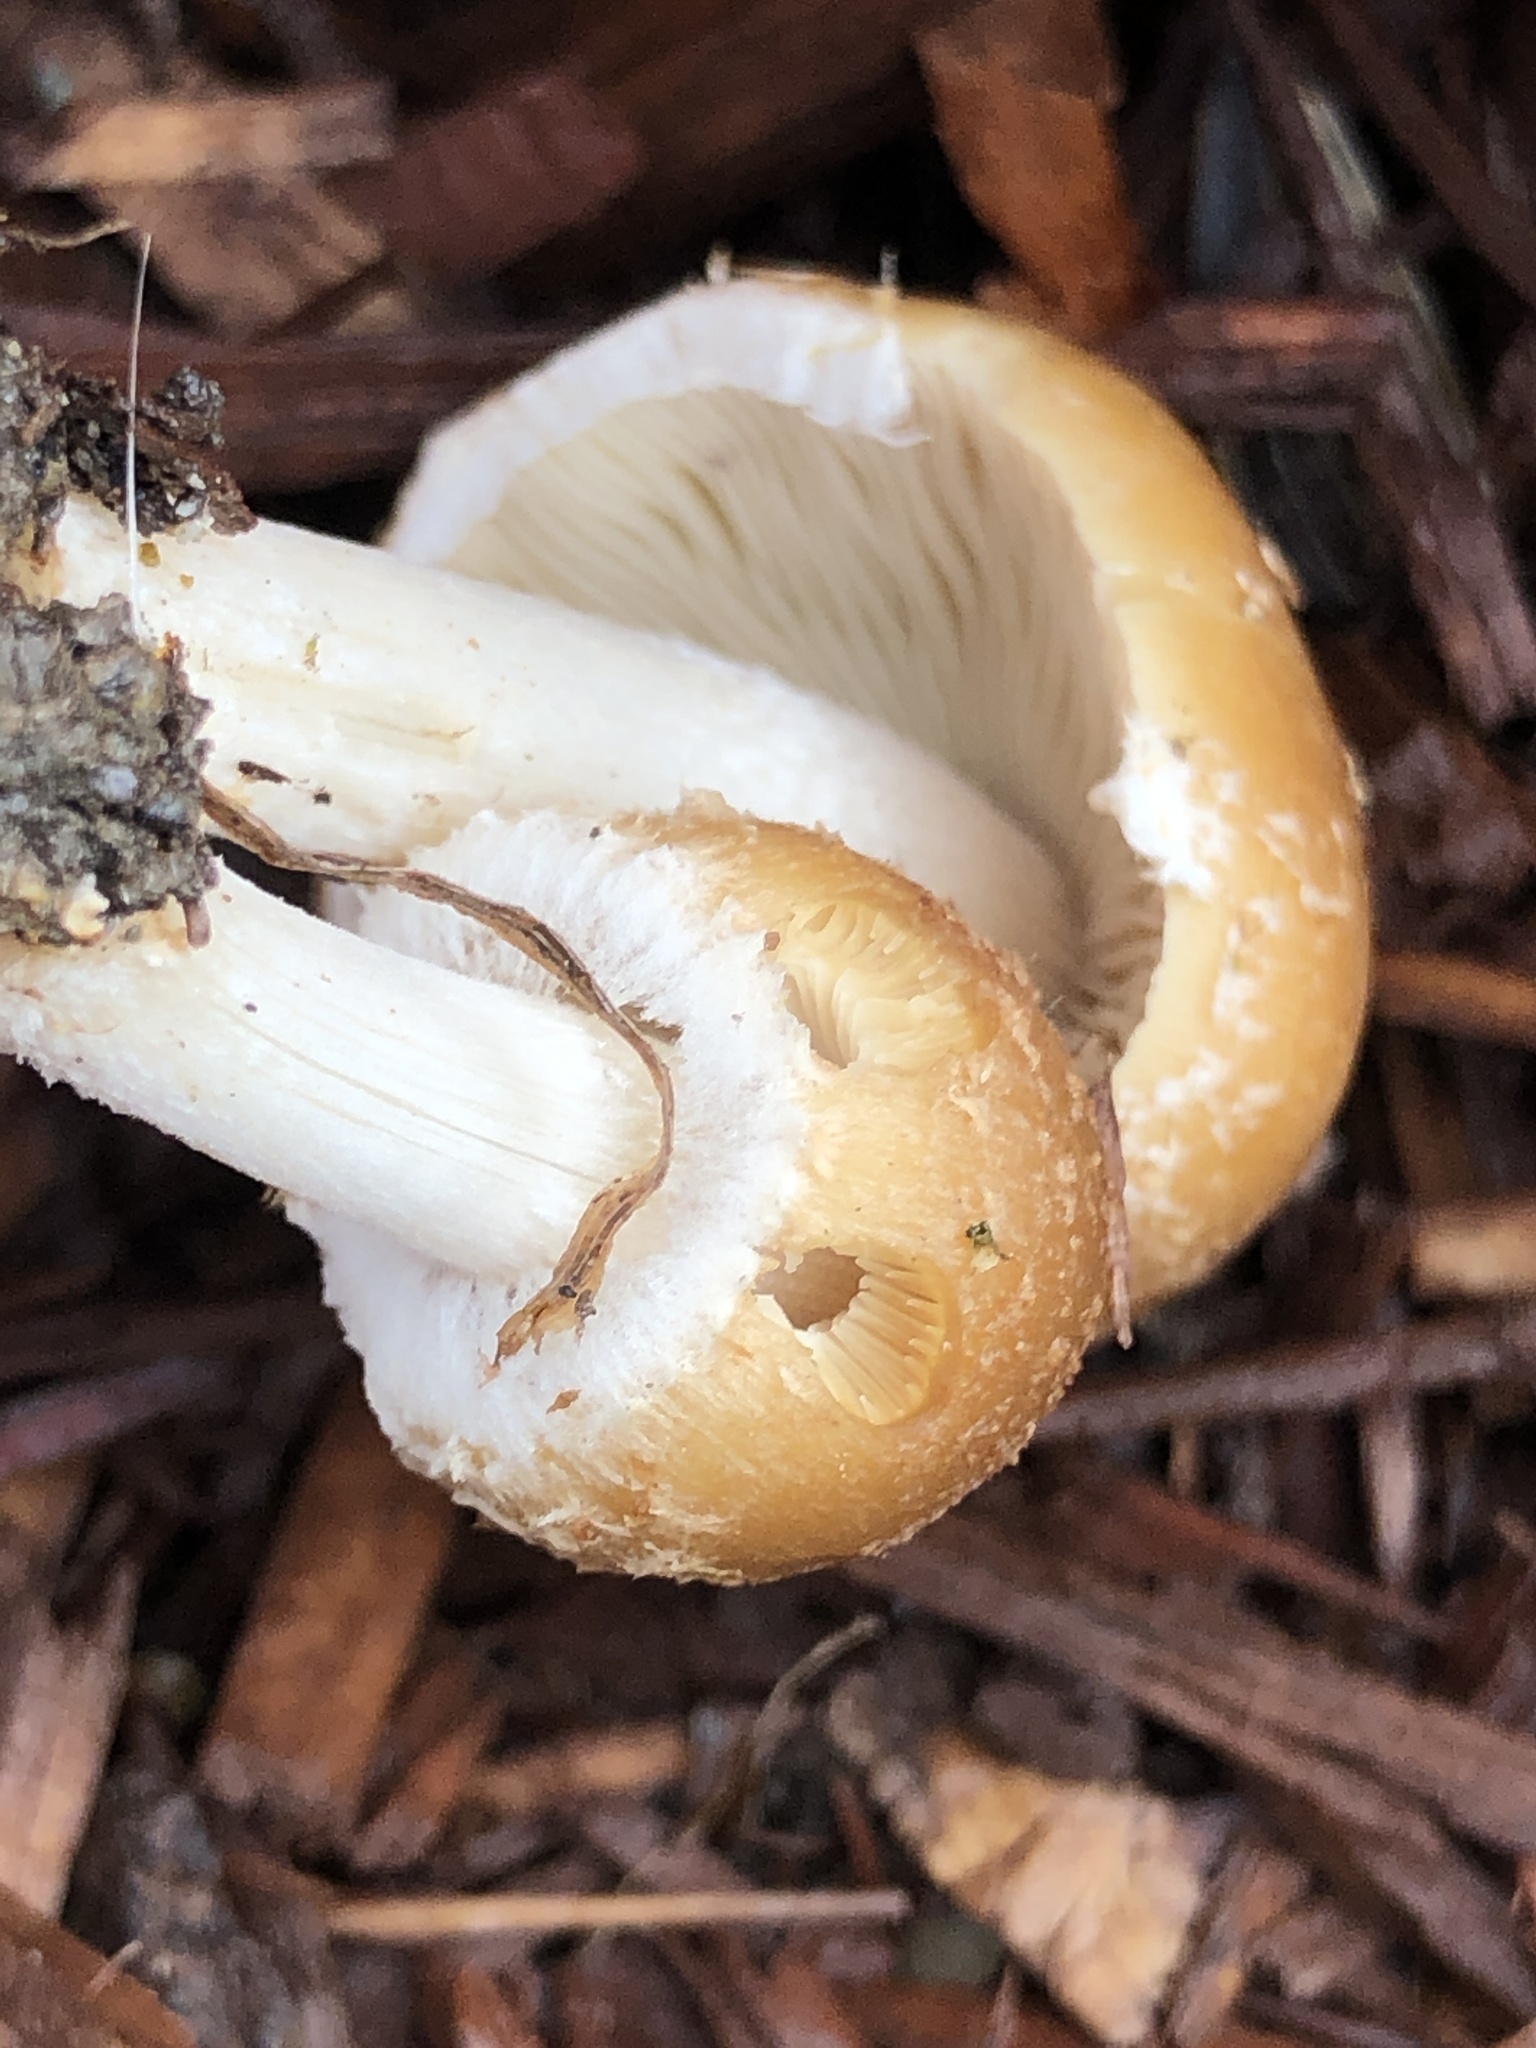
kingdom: Fungi
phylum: Basidiomycota
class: Agaricomycetes
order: Agaricales
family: Psathyrellaceae
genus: Candolleomyces
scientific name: Candolleomyces candolleanus
